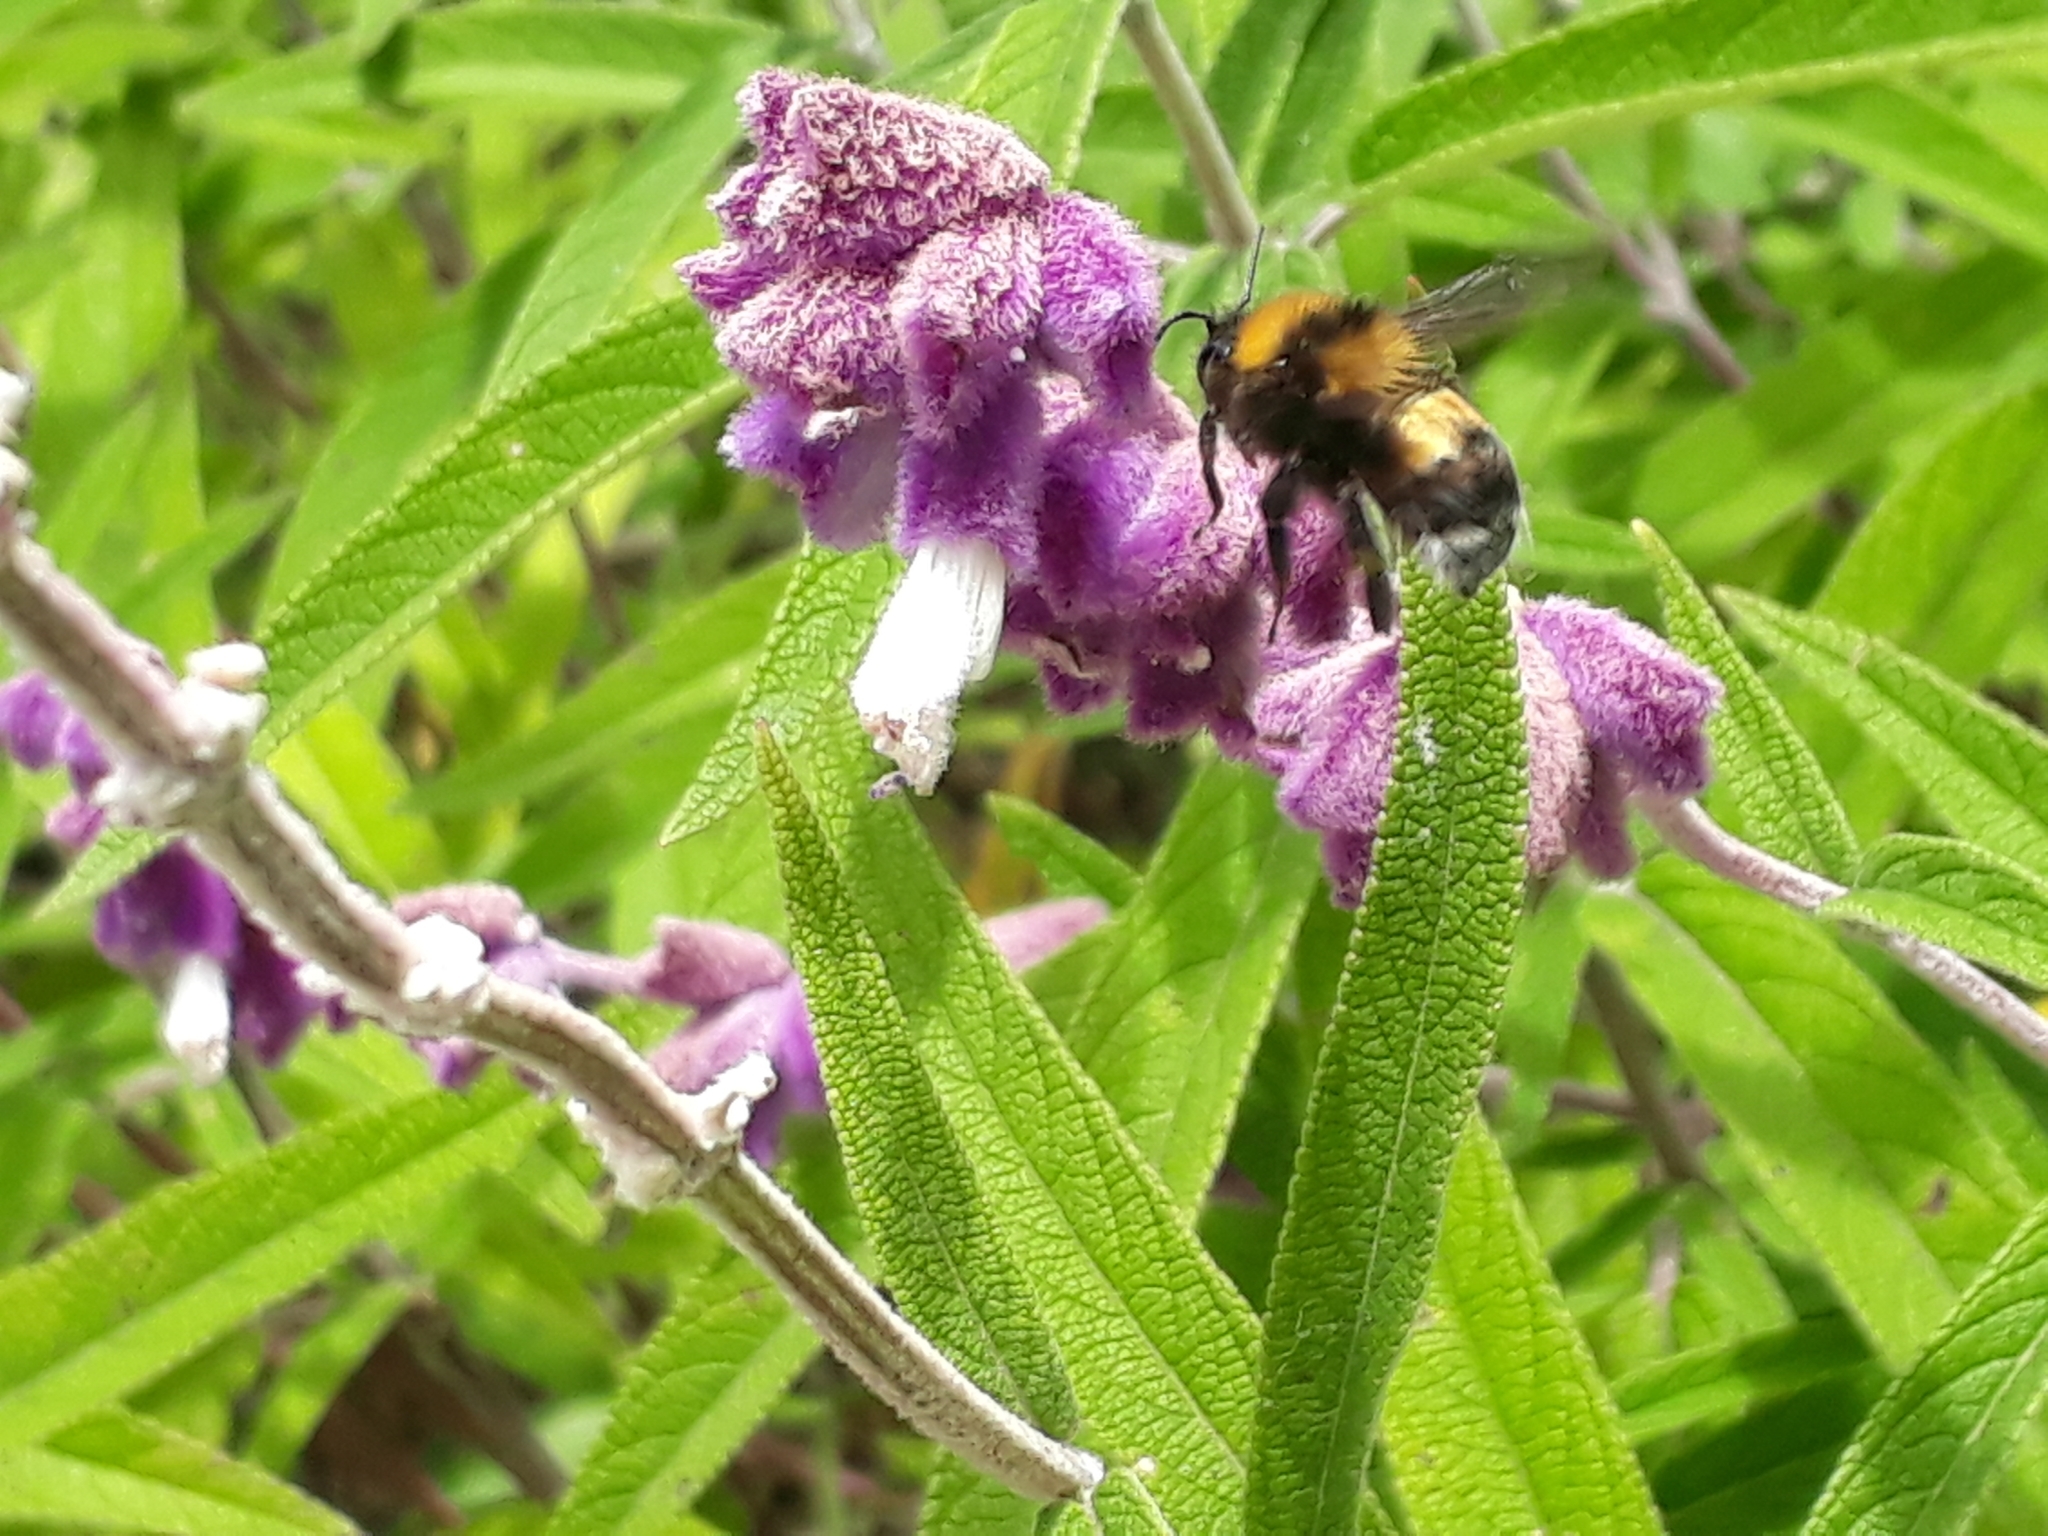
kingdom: Animalia
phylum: Arthropoda
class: Insecta
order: Hymenoptera
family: Apidae
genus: Bombus
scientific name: Bombus hortulanus
